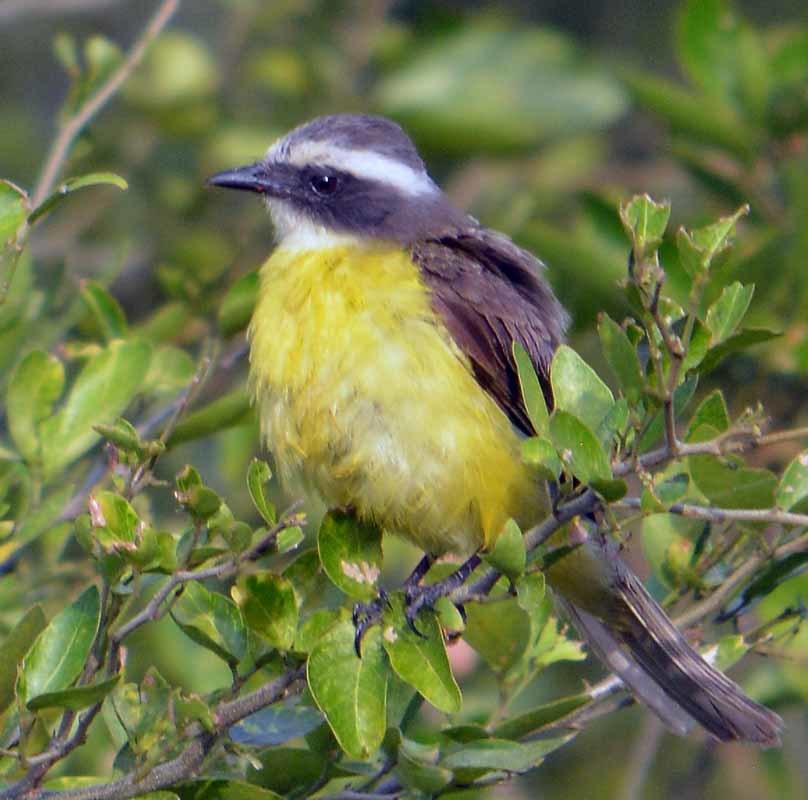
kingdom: Animalia
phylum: Chordata
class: Aves
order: Passeriformes
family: Tyrannidae
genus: Myiozetetes
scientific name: Myiozetetes similis
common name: Social flycatcher
